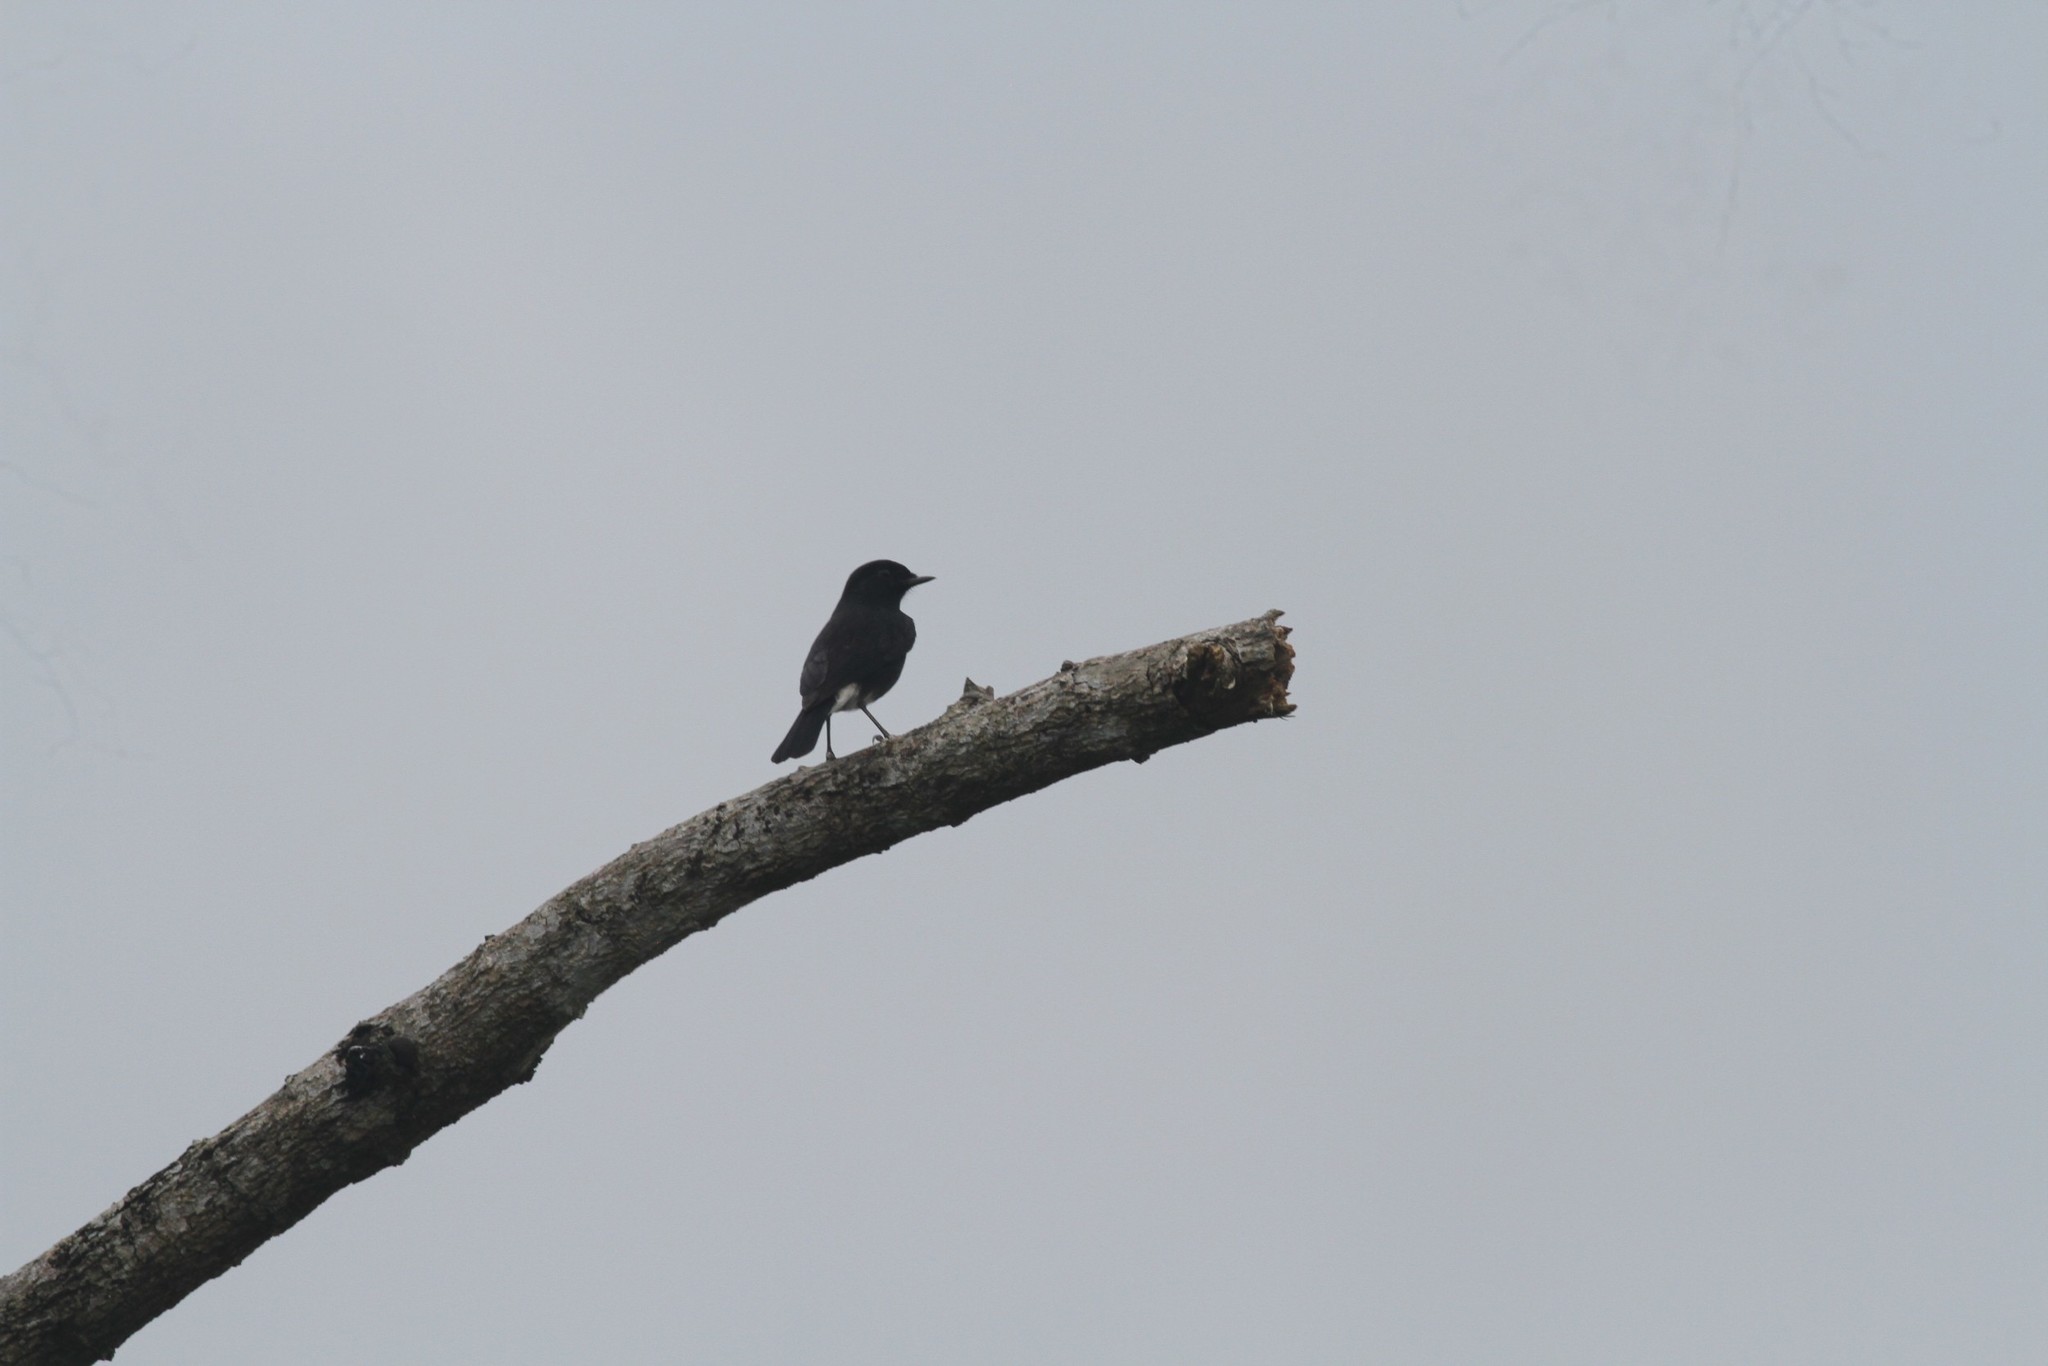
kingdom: Animalia
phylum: Chordata
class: Aves
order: Passeriformes
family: Muscicapidae
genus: Saxicola
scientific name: Saxicola caprata
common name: Pied bush chat
